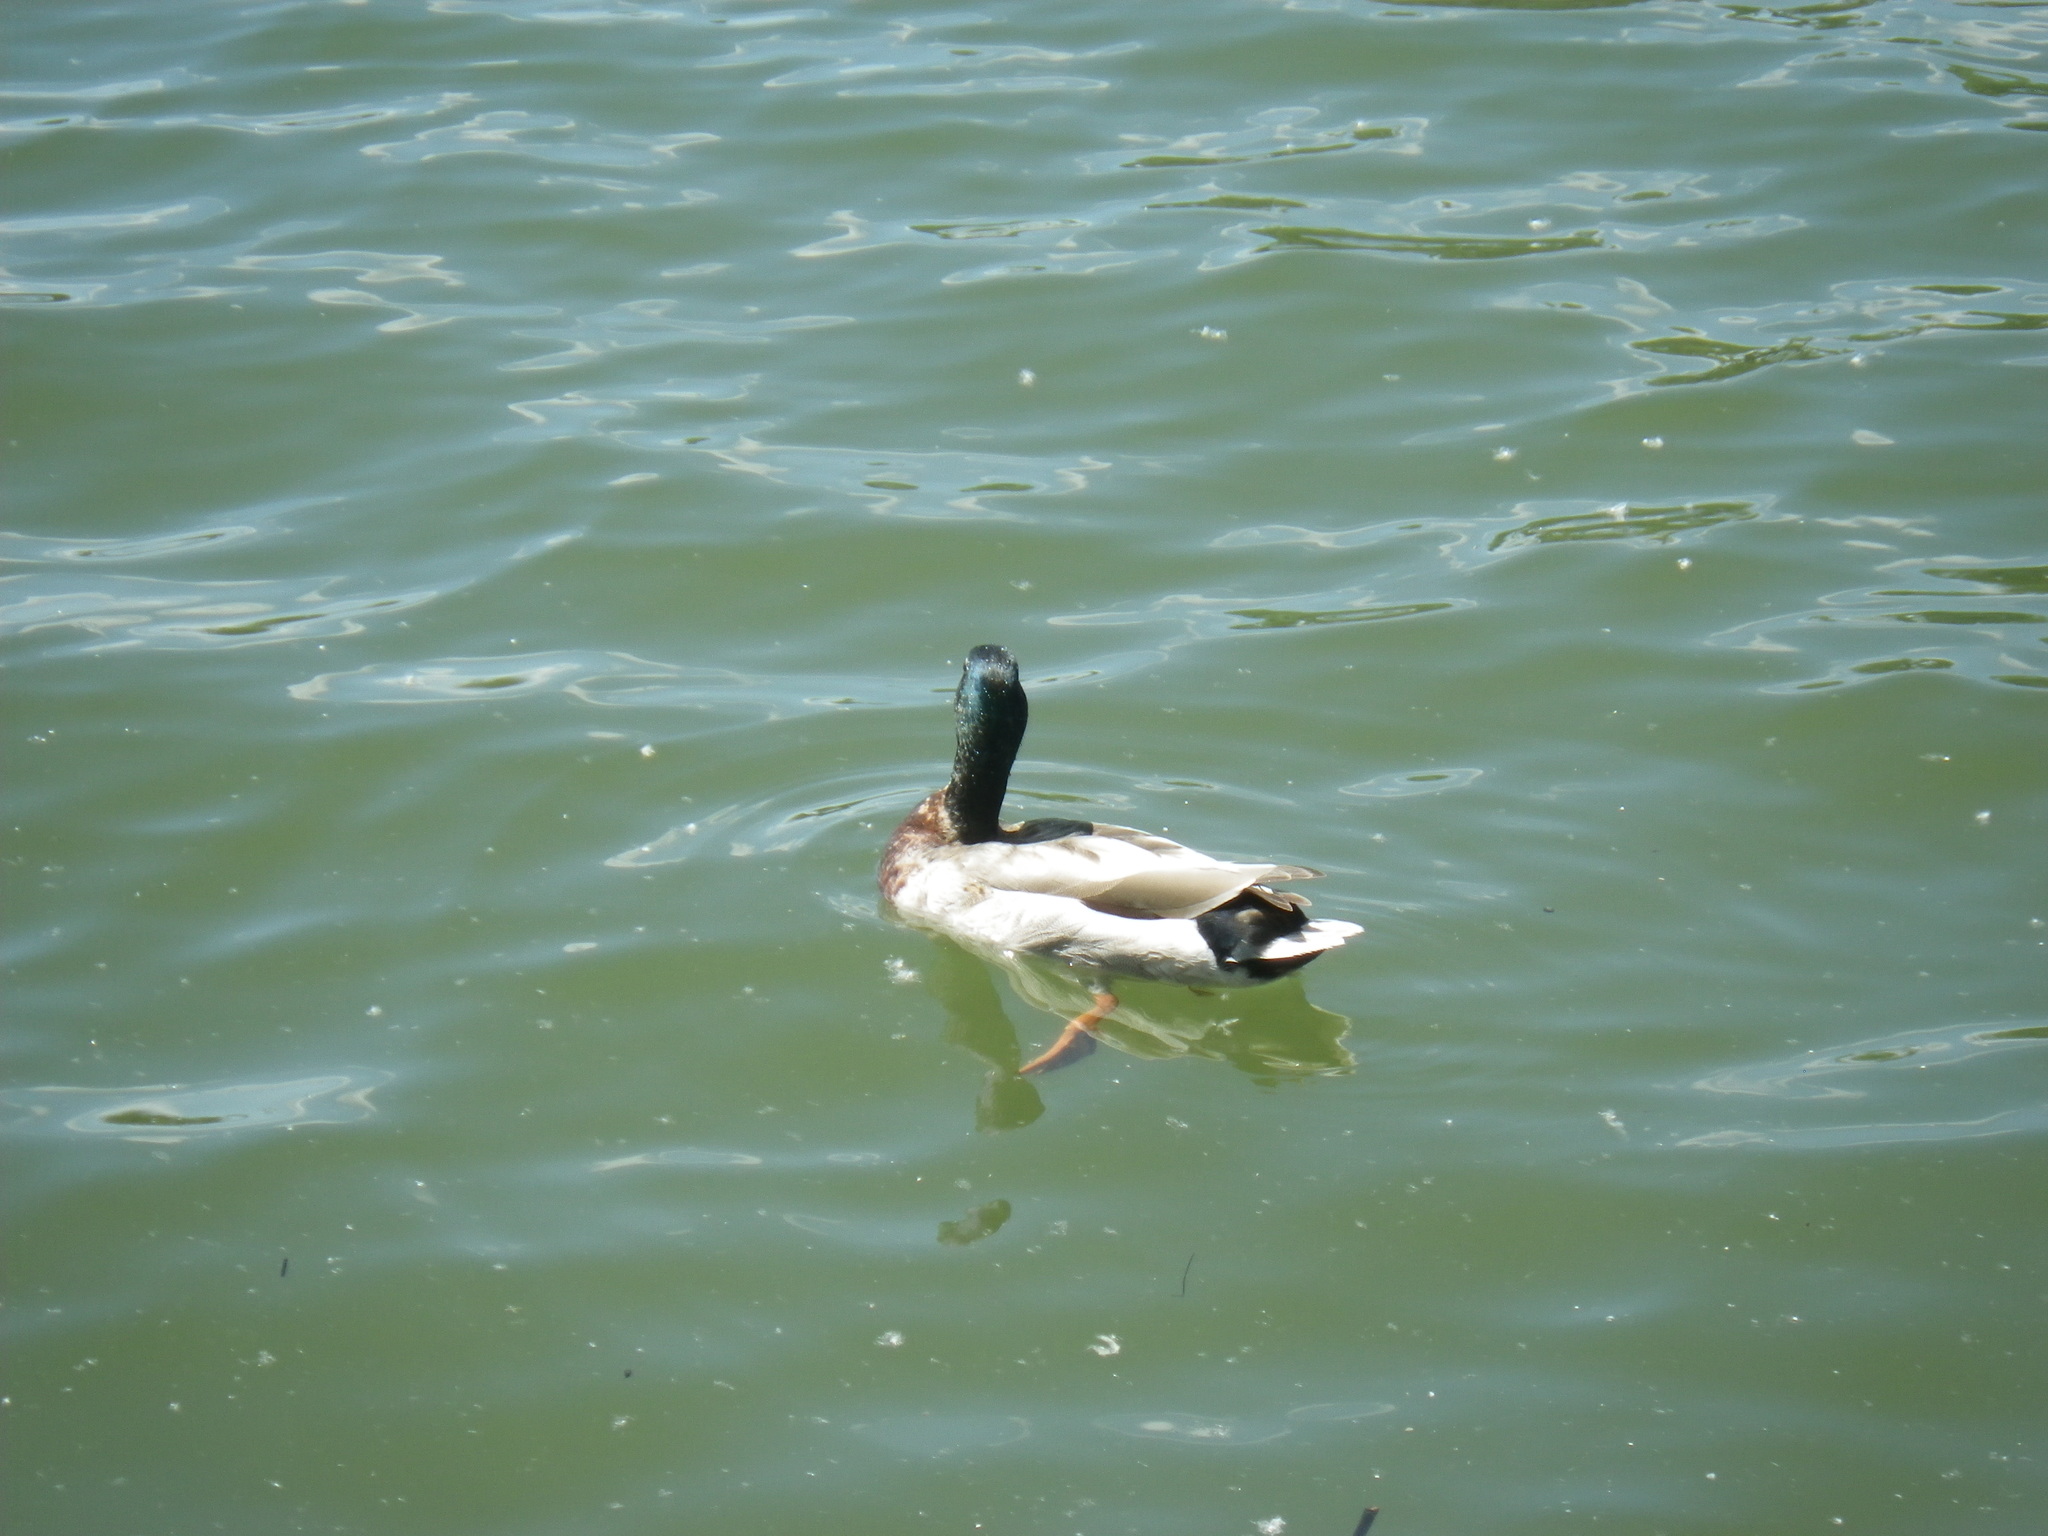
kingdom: Animalia
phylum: Chordata
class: Aves
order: Anseriformes
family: Anatidae
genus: Anas
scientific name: Anas platyrhynchos
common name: Mallard
